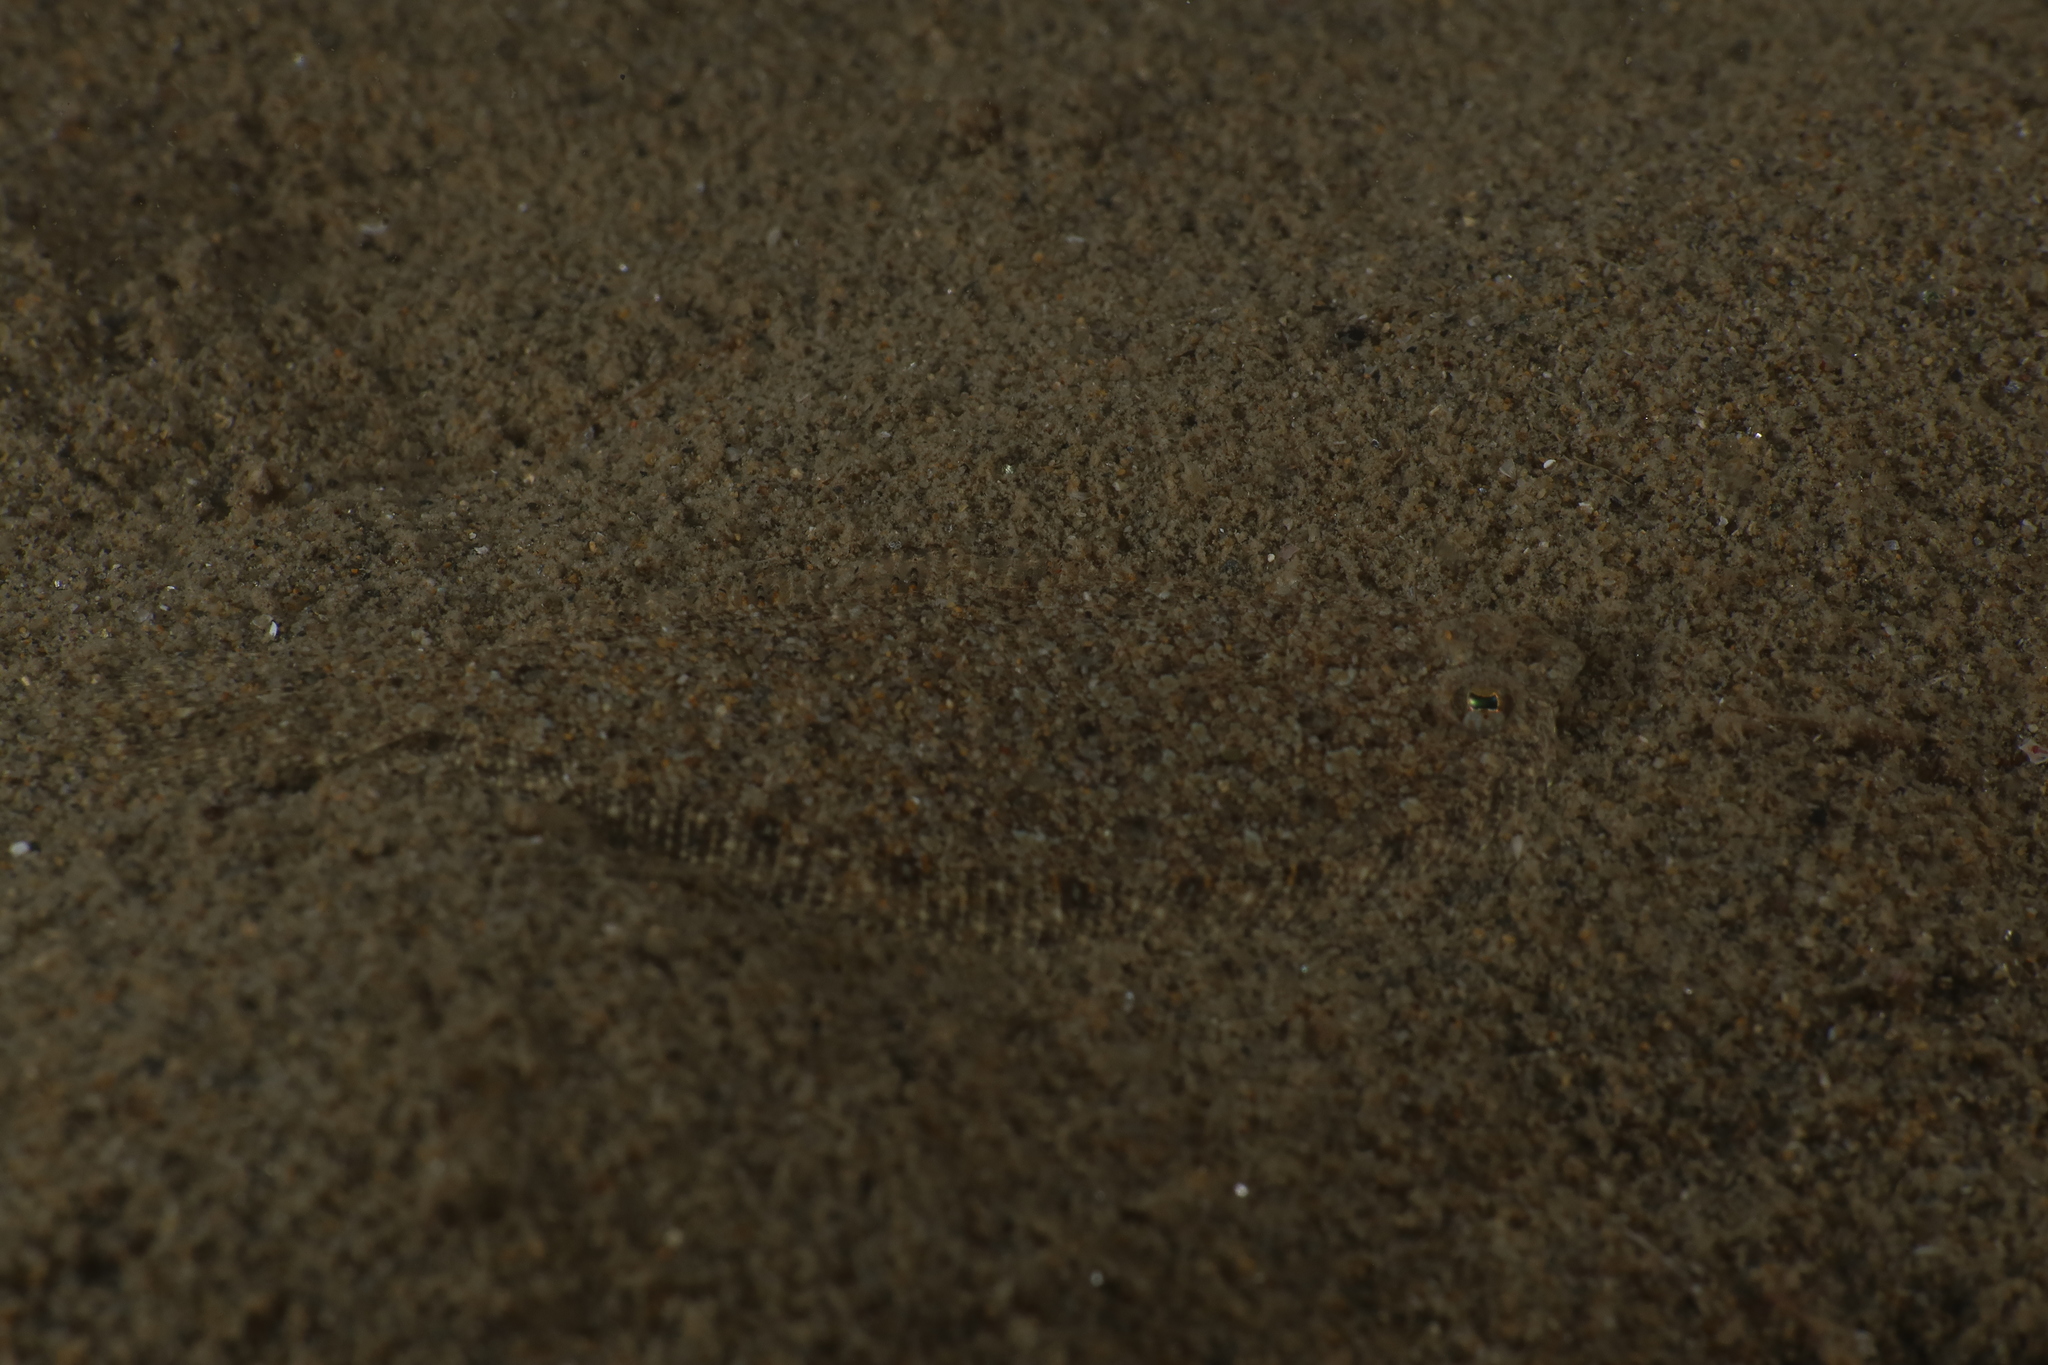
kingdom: Animalia
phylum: Chordata
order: Pleuronectiformes
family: Bothidae
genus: Arnoglossus
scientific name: Arnoglossus grohmanni
